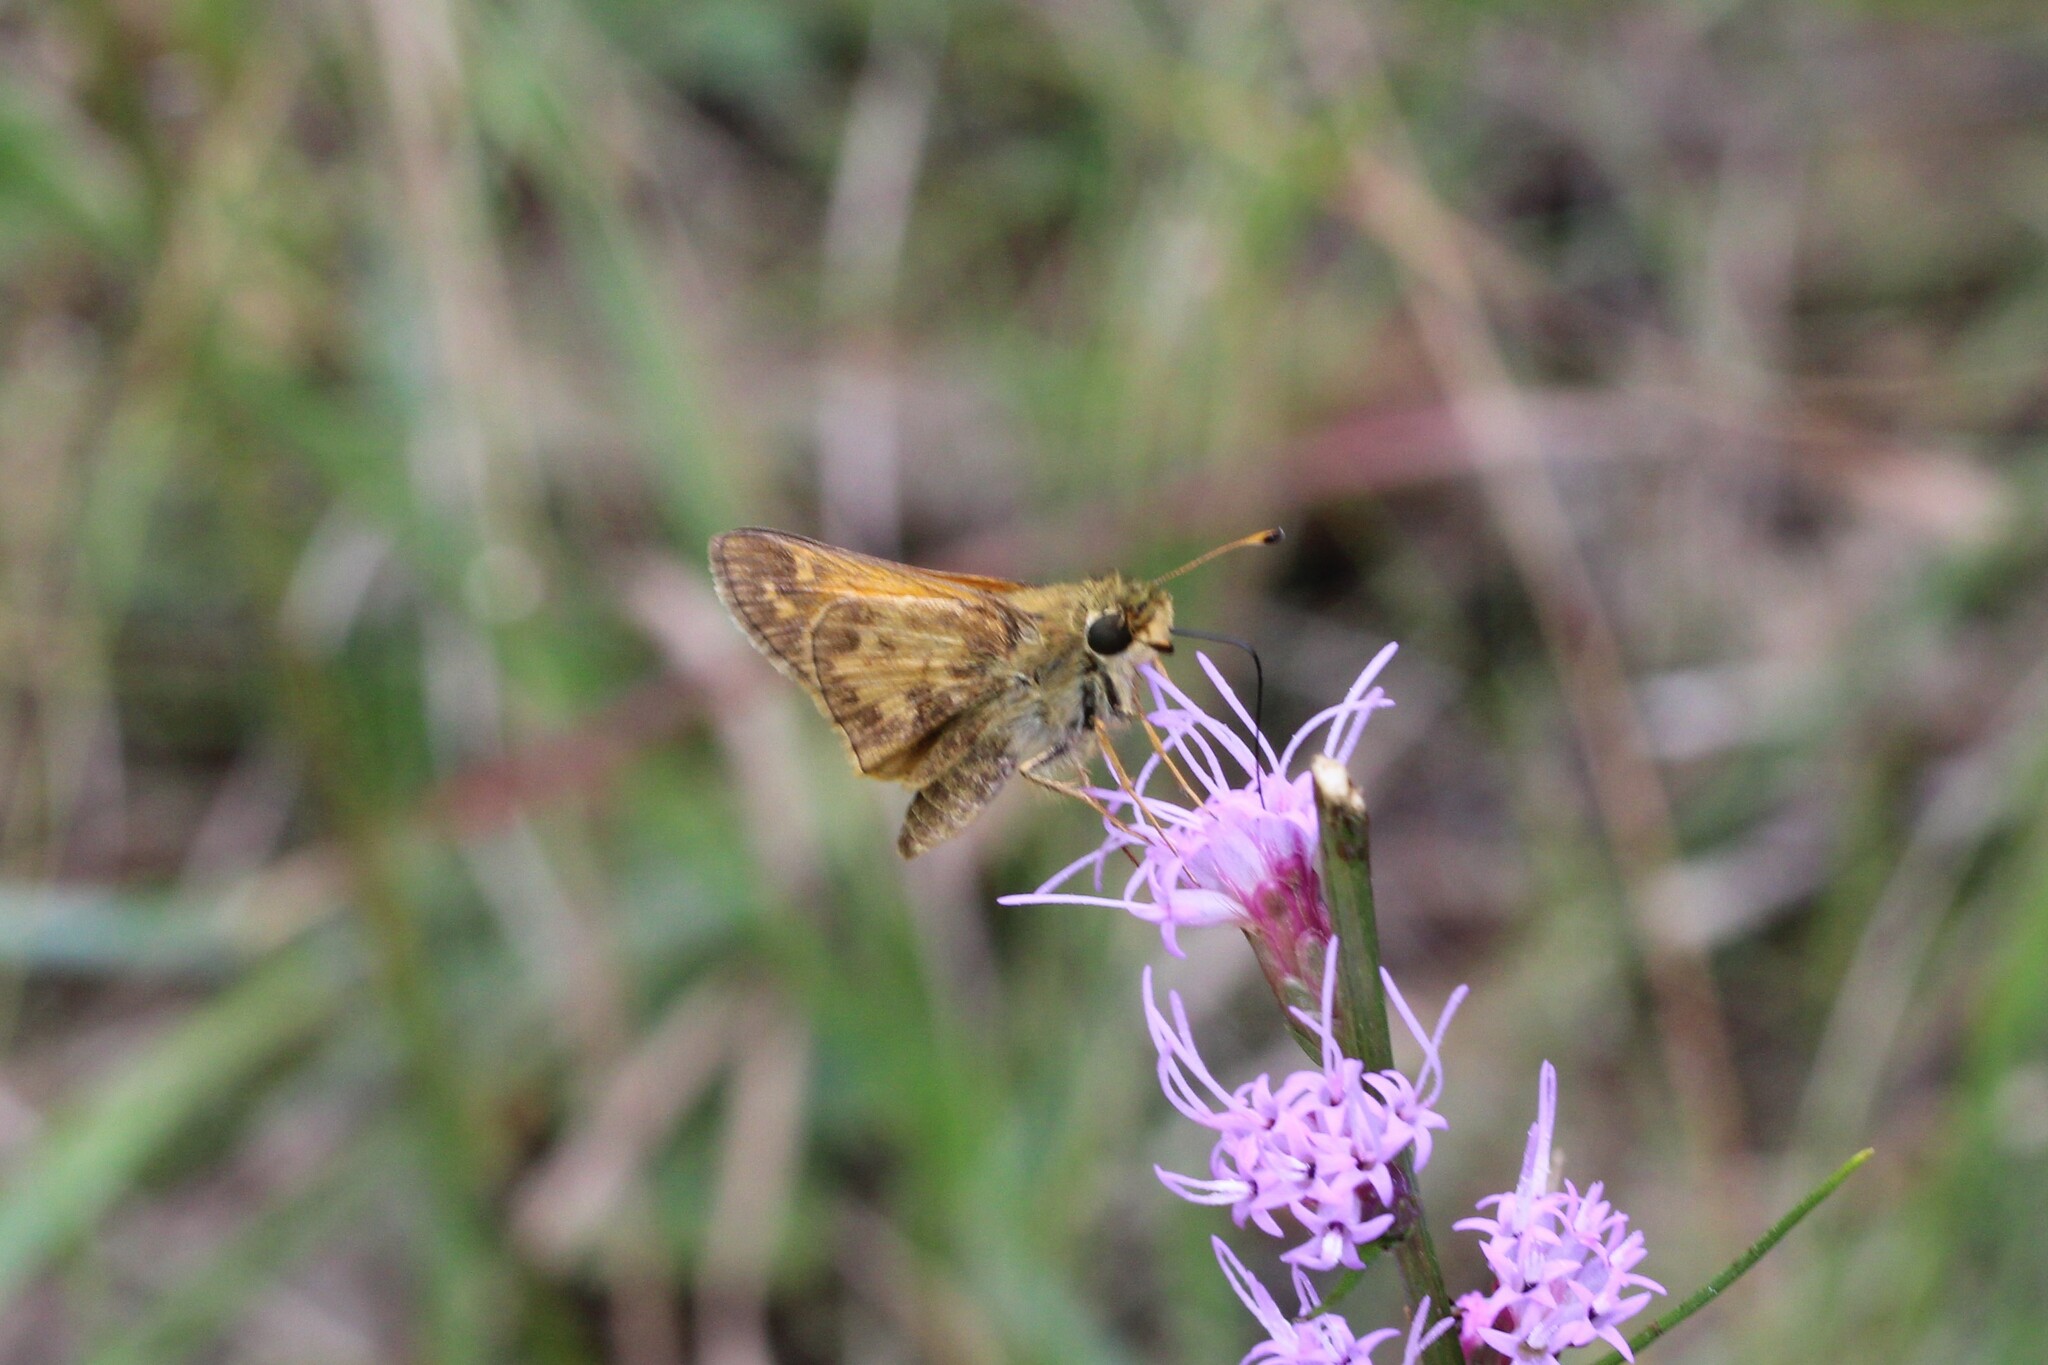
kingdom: Animalia
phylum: Arthropoda
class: Insecta
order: Lepidoptera
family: Hesperiidae
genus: Atalopedes
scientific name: Atalopedes
